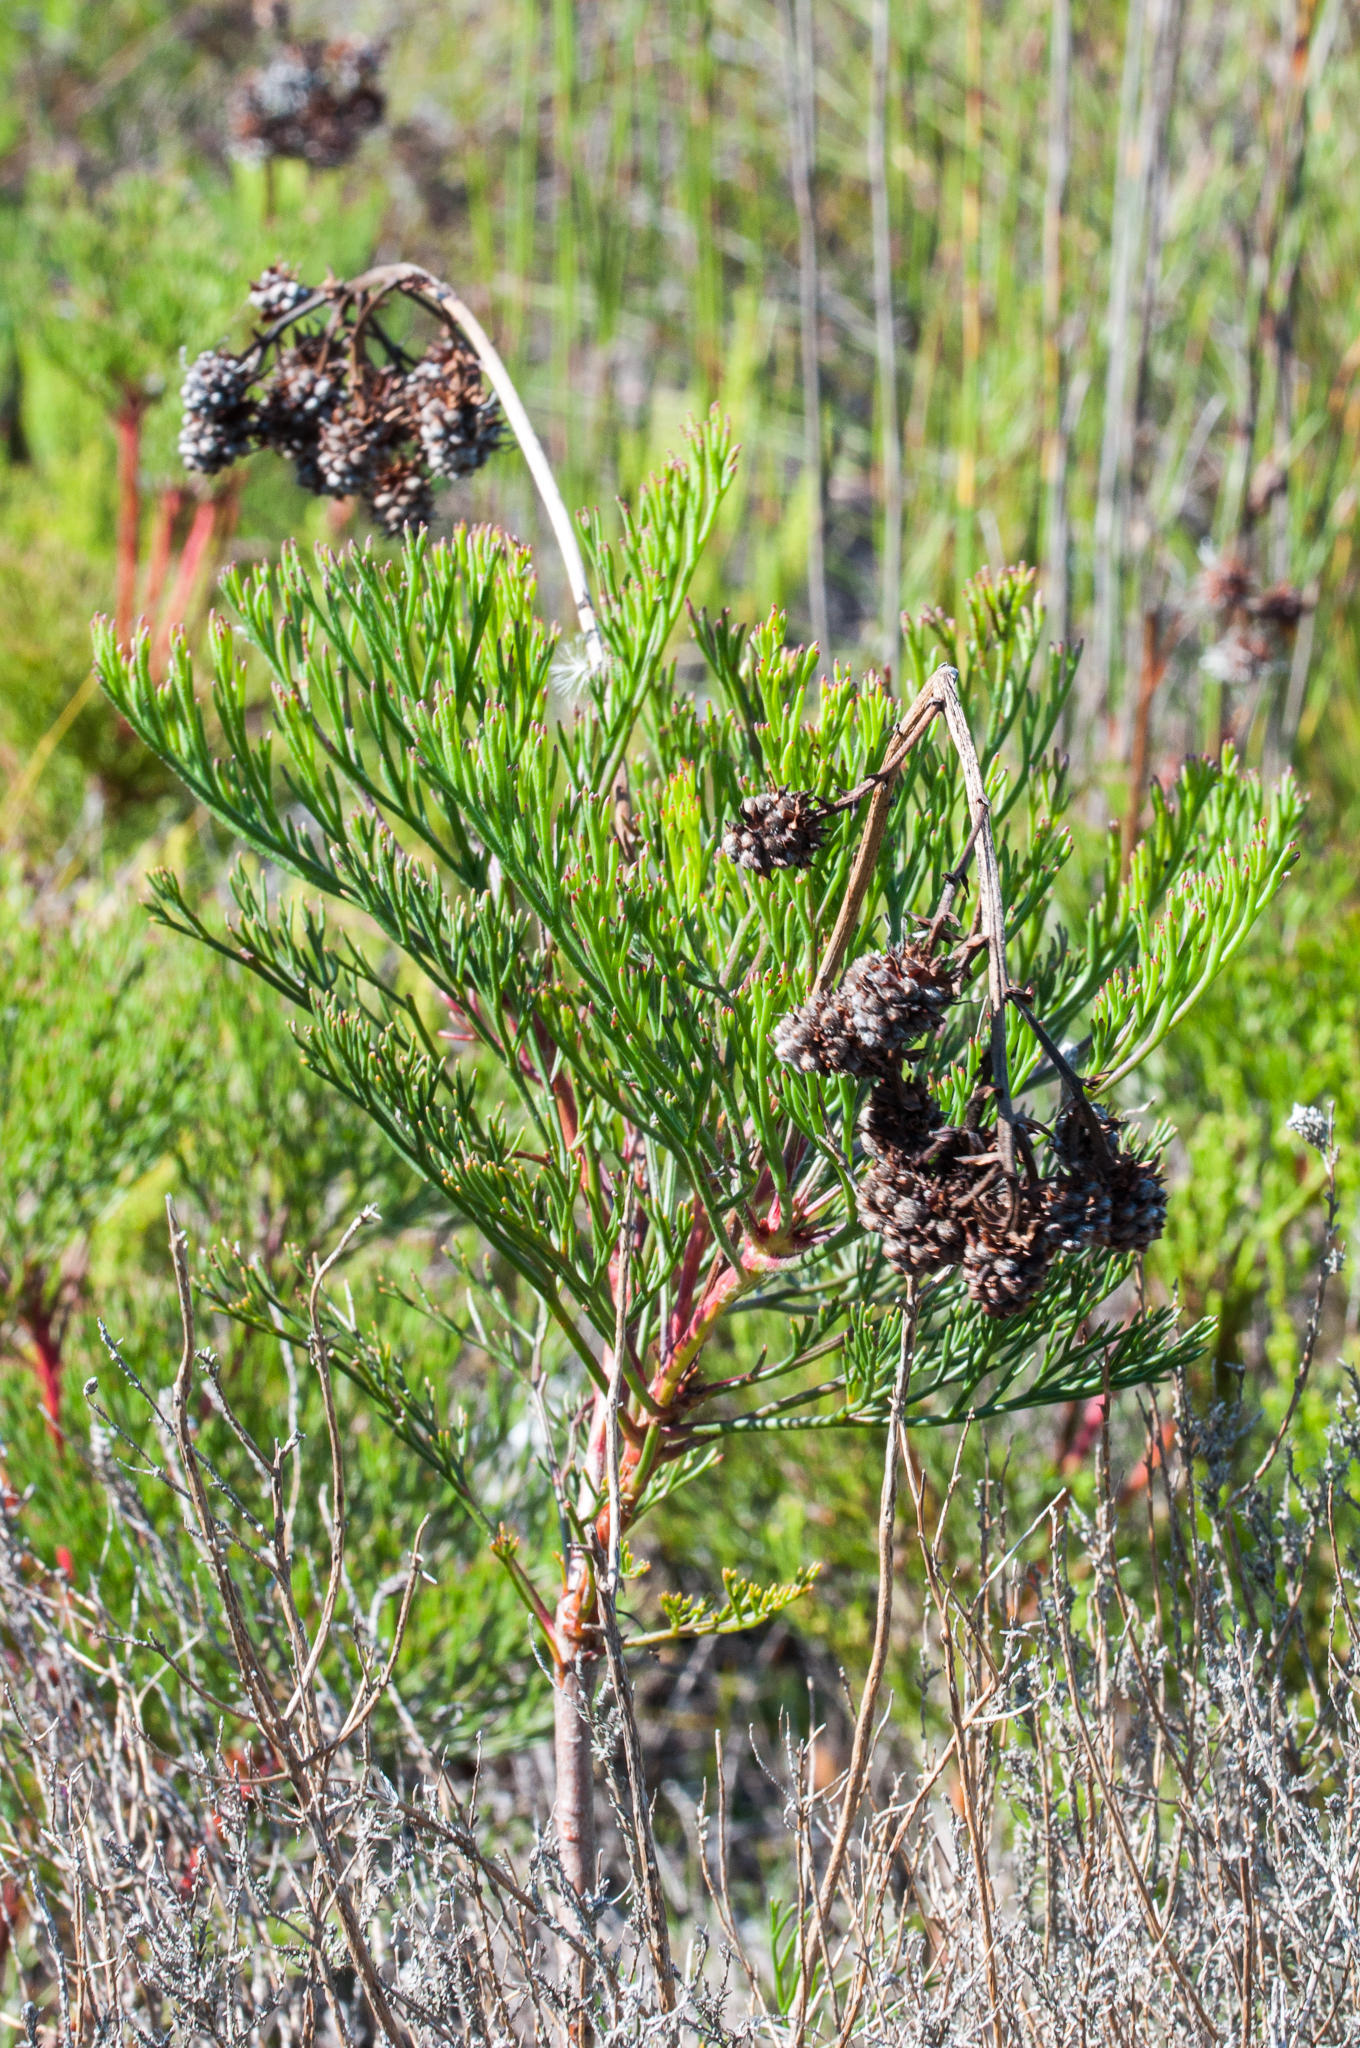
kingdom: Plantae
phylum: Tracheophyta
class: Magnoliopsida
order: Proteales
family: Proteaceae
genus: Serruria
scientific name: Serruria elongata
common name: Long-stalk spiderhead
